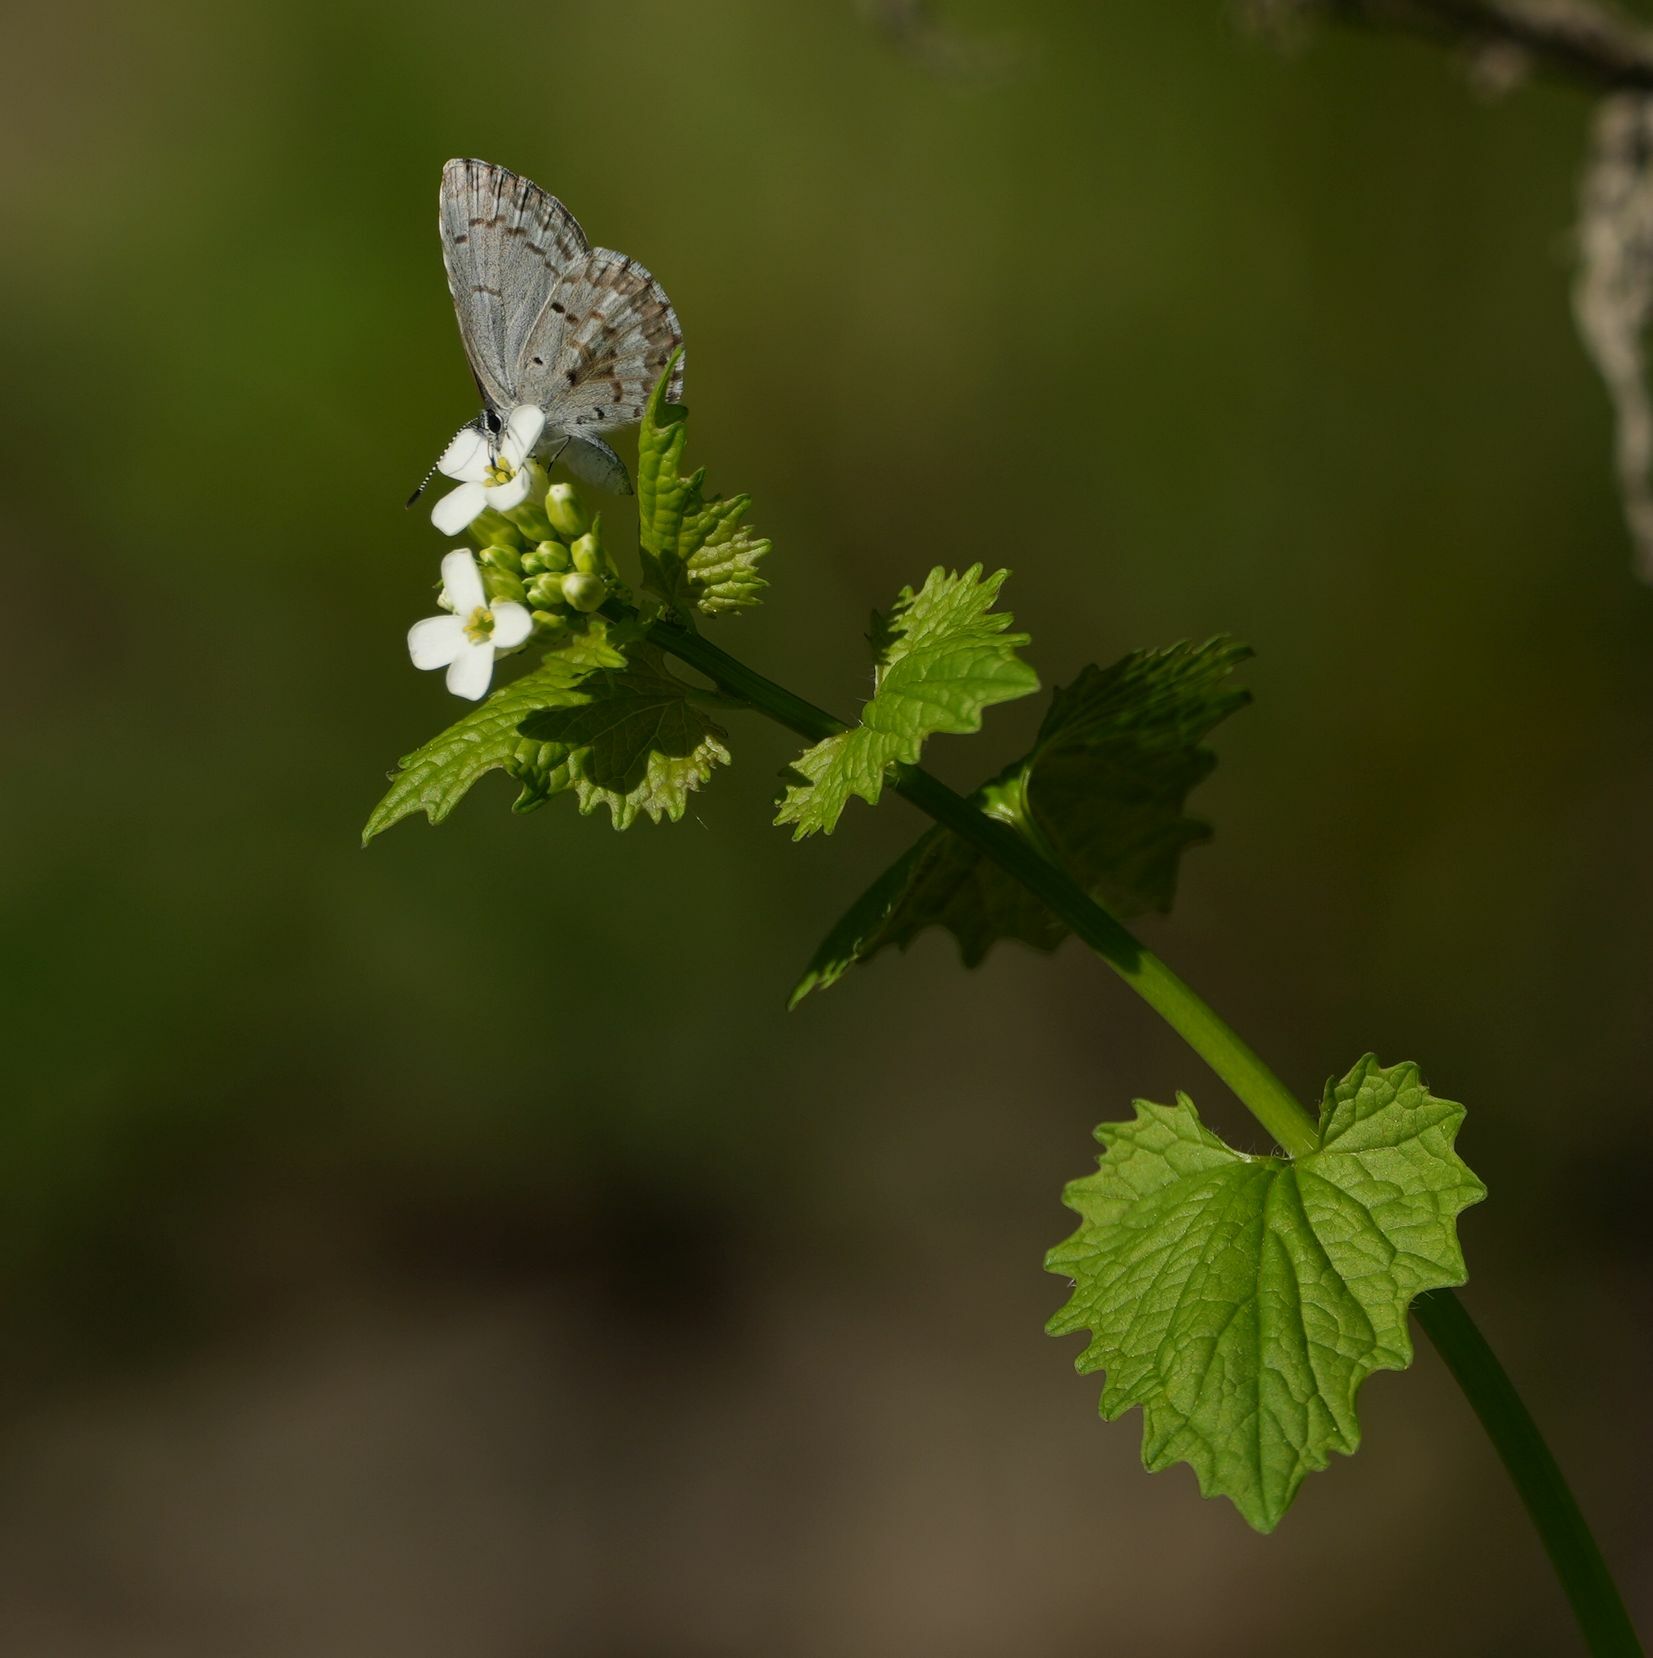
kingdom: Animalia
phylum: Arthropoda
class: Insecta
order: Lepidoptera
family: Lycaenidae
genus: Celastrina
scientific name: Celastrina lucia
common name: Lucia azure
